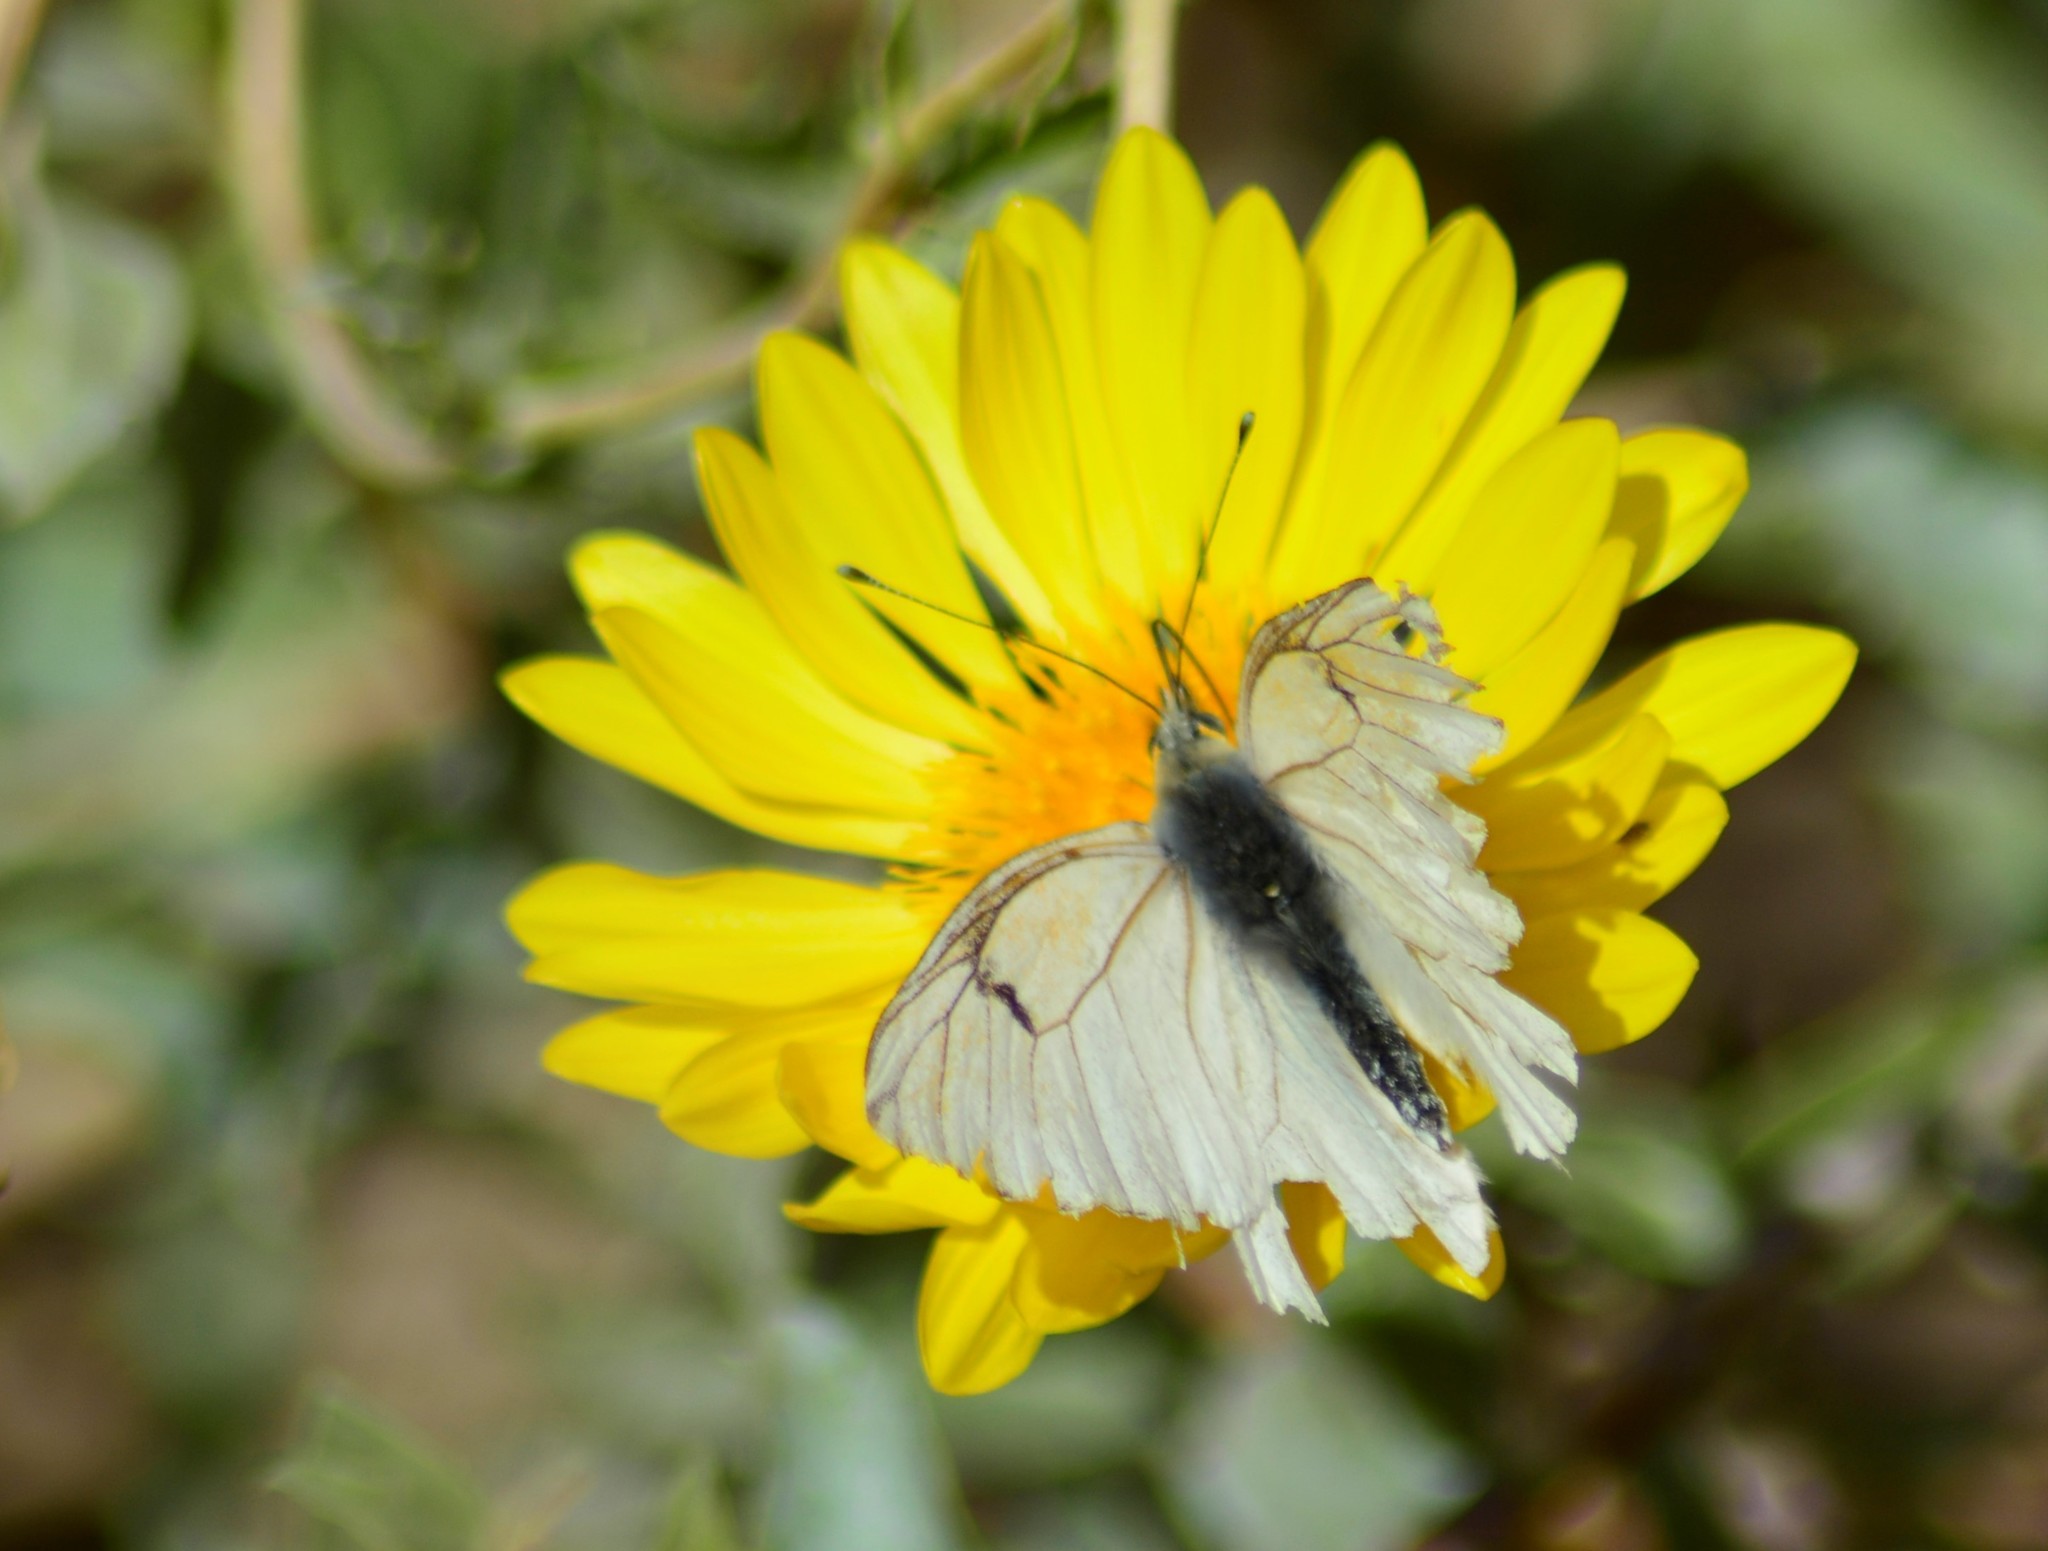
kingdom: Animalia
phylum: Arthropoda
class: Insecta
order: Lepidoptera
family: Pieridae
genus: Tatochila
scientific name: Tatochila mercedis
